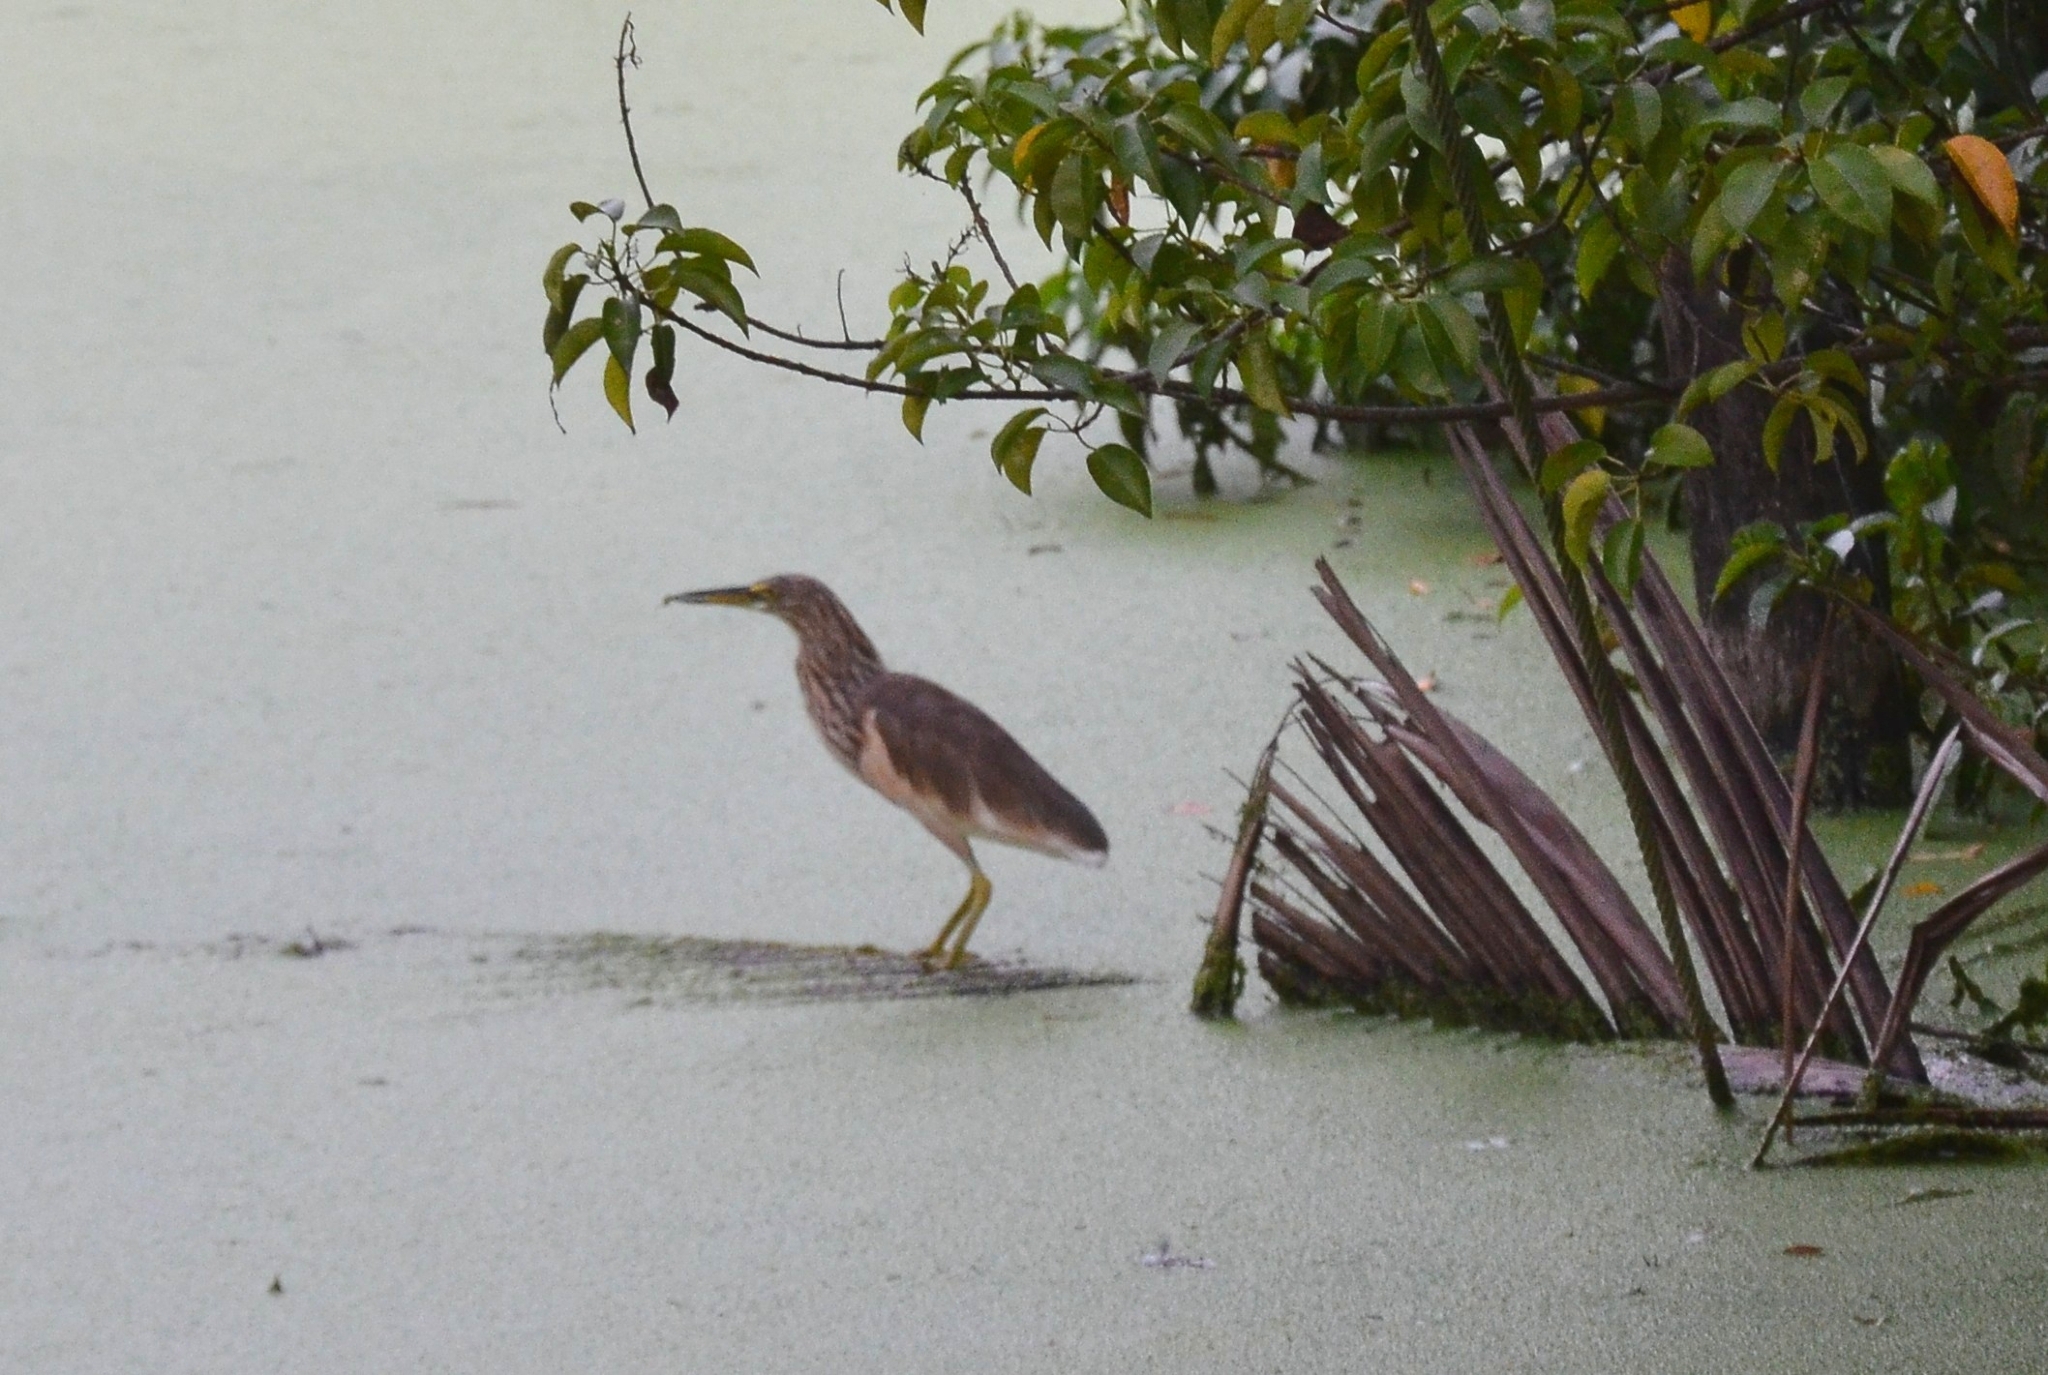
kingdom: Animalia
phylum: Chordata
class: Aves
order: Pelecaniformes
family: Ardeidae
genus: Ardeola
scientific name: Ardeola grayii
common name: Indian pond heron
